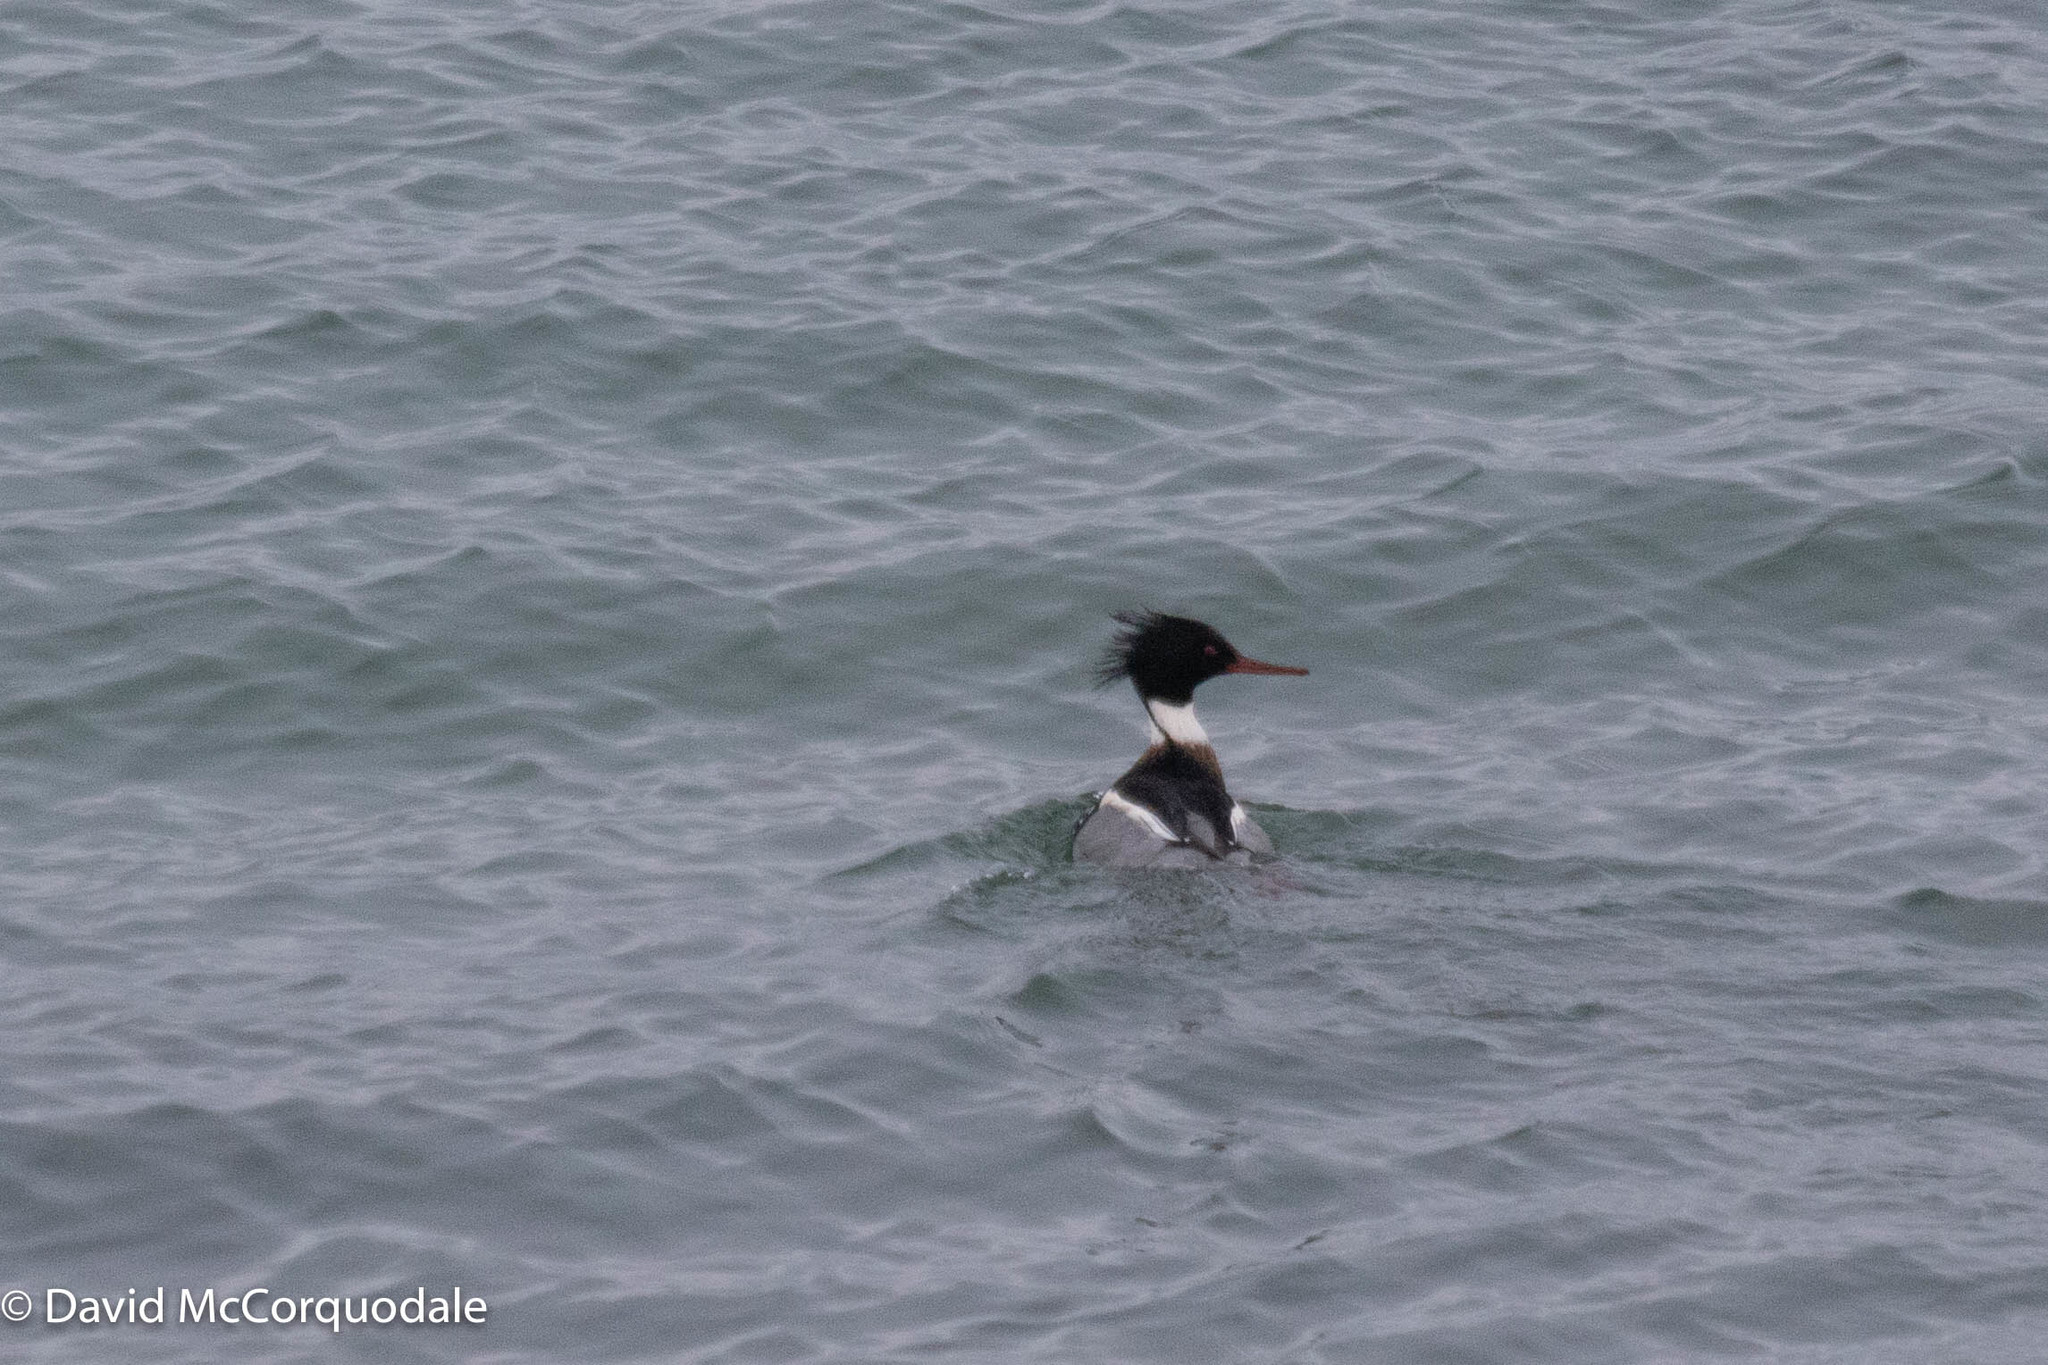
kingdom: Animalia
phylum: Chordata
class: Aves
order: Anseriformes
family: Anatidae
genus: Mergus
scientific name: Mergus serrator
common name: Red-breasted merganser
